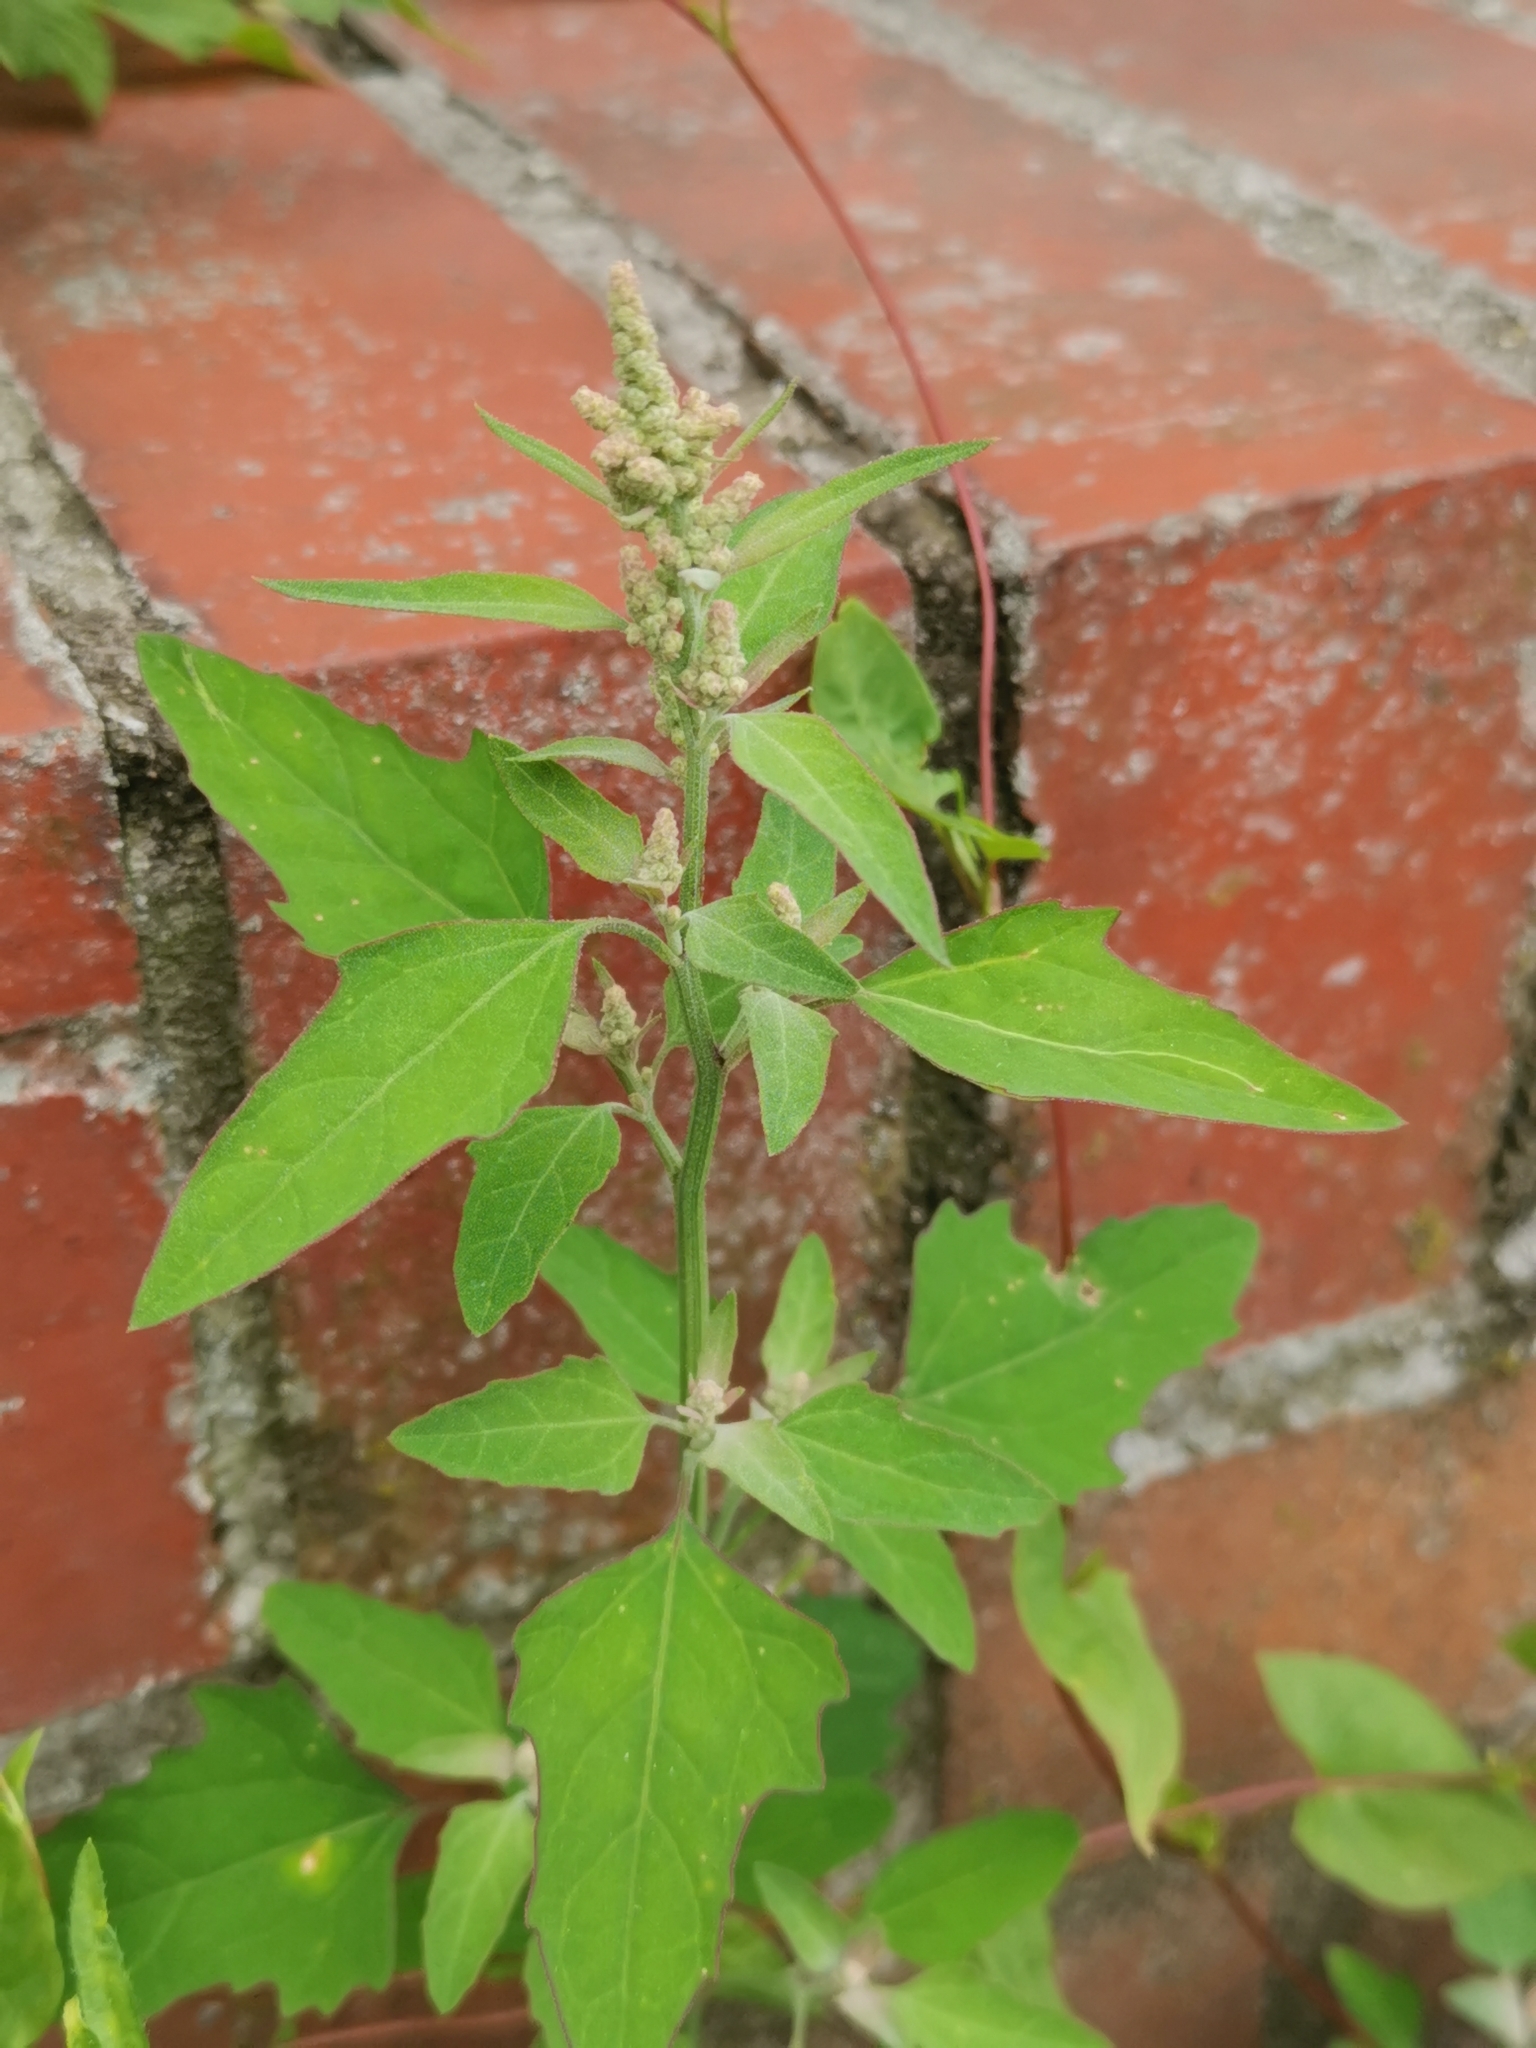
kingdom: Plantae
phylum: Tracheophyta
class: Magnoliopsida
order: Caryophyllales
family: Amaranthaceae
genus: Chenopodium
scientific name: Chenopodium album
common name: Fat-hen
